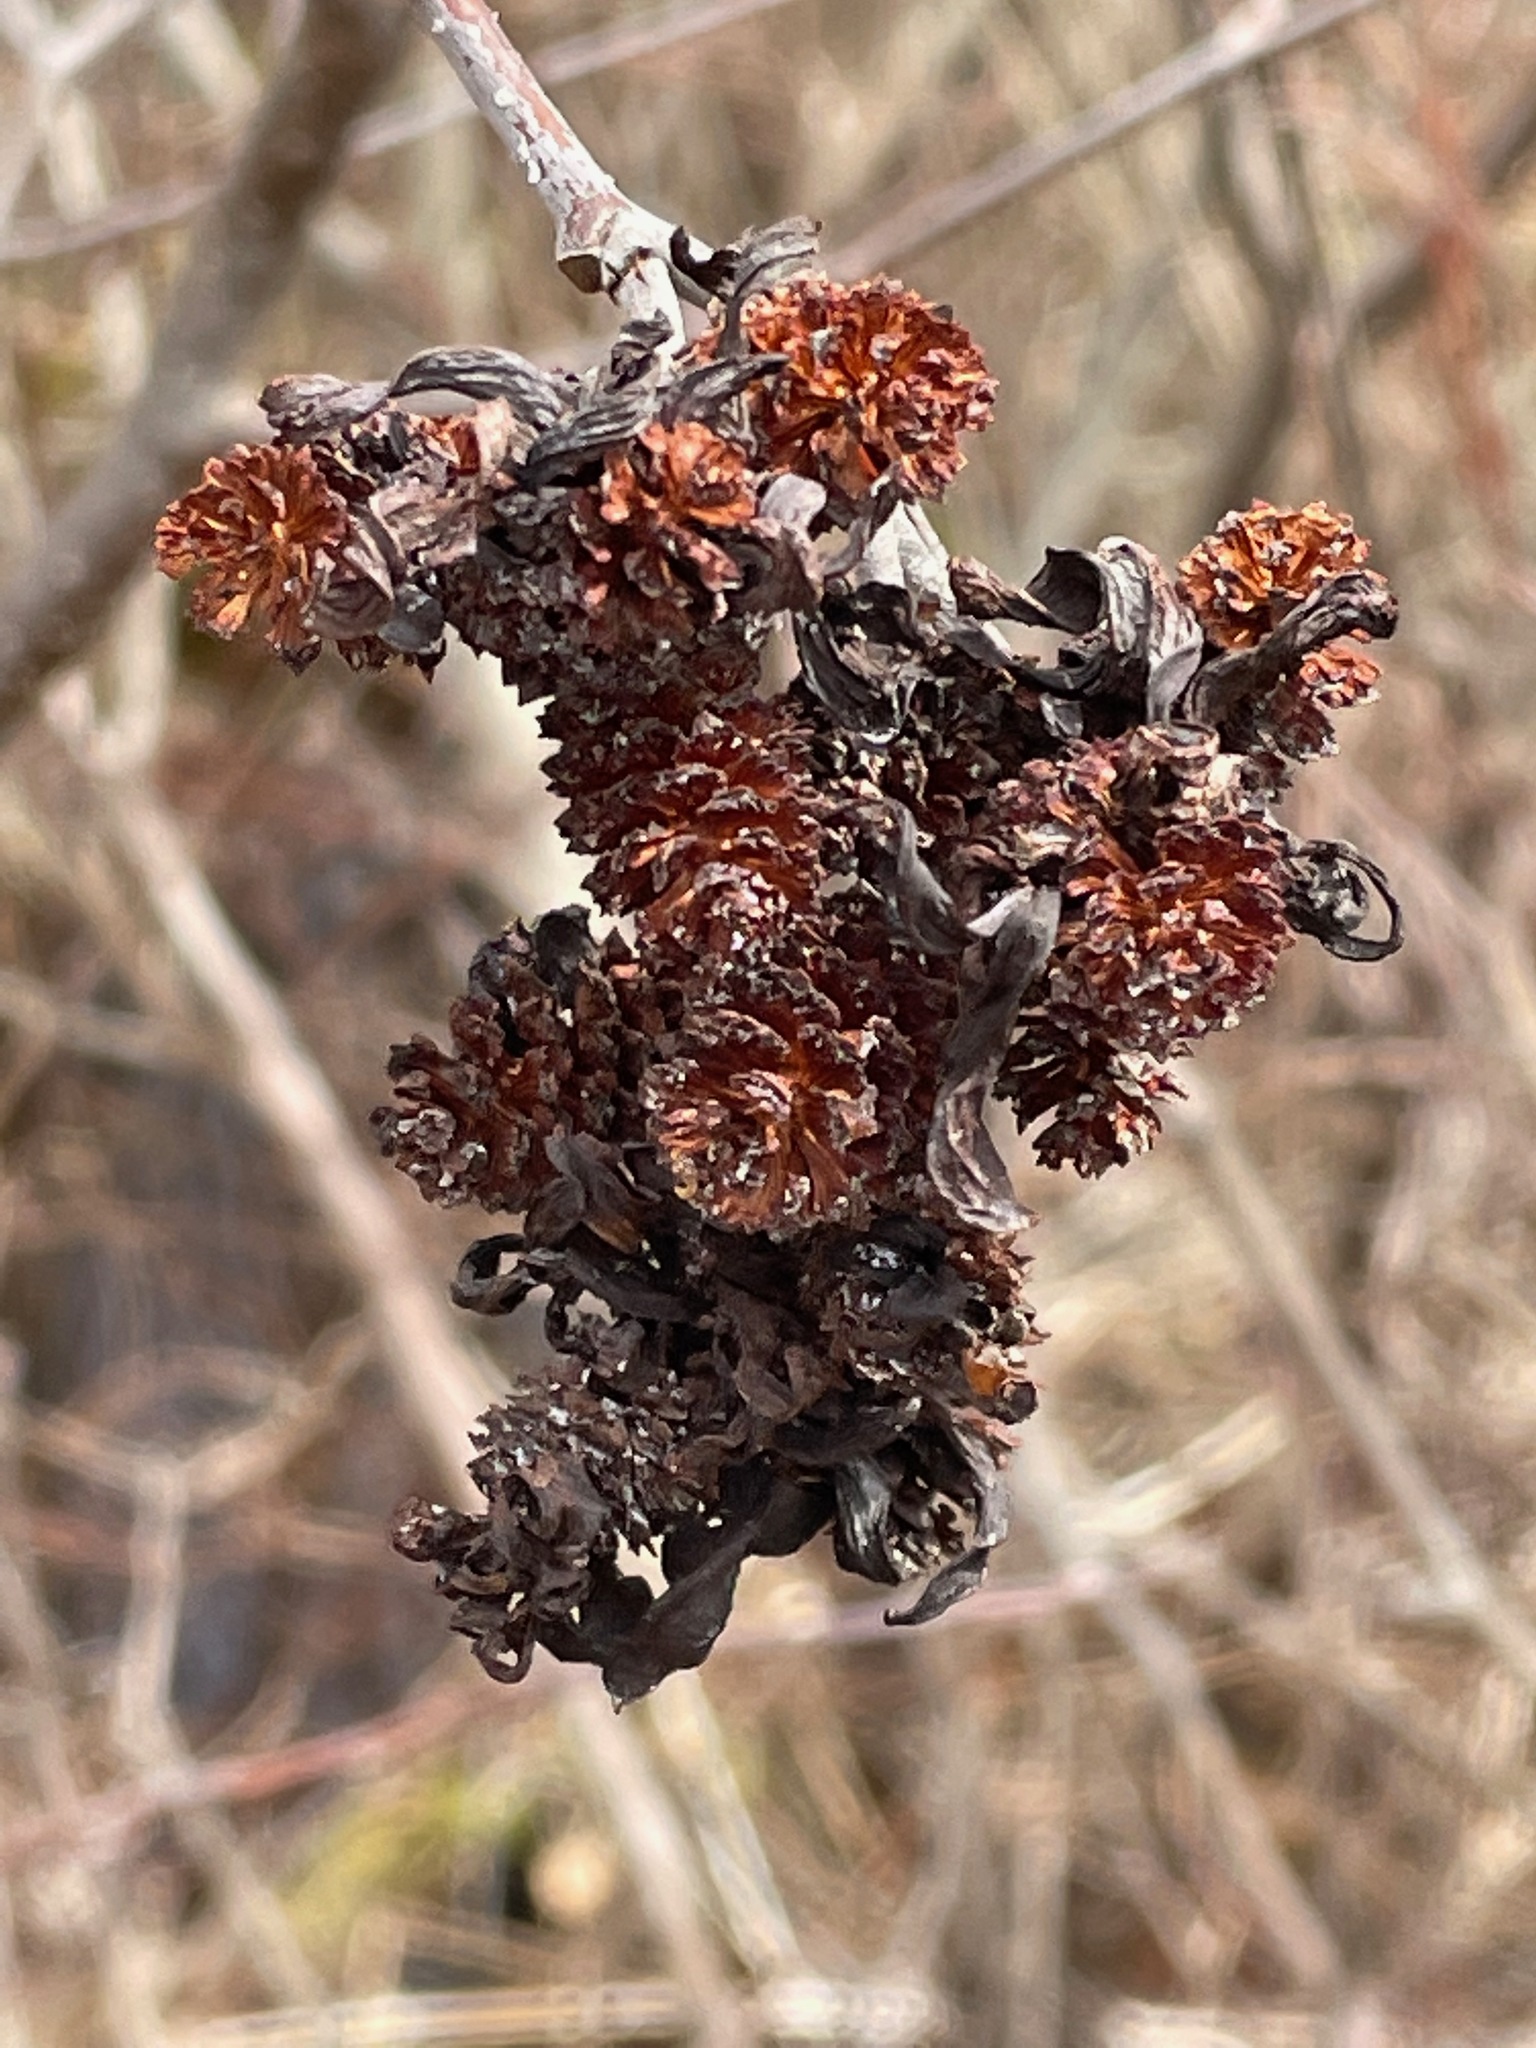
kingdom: Fungi
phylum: Ascomycota
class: Taphrinomycetes
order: Taphrinales
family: Taphrinaceae
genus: Taphrina
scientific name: Taphrina robinsoniana
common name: Eastern american alder tongue gall fungus
